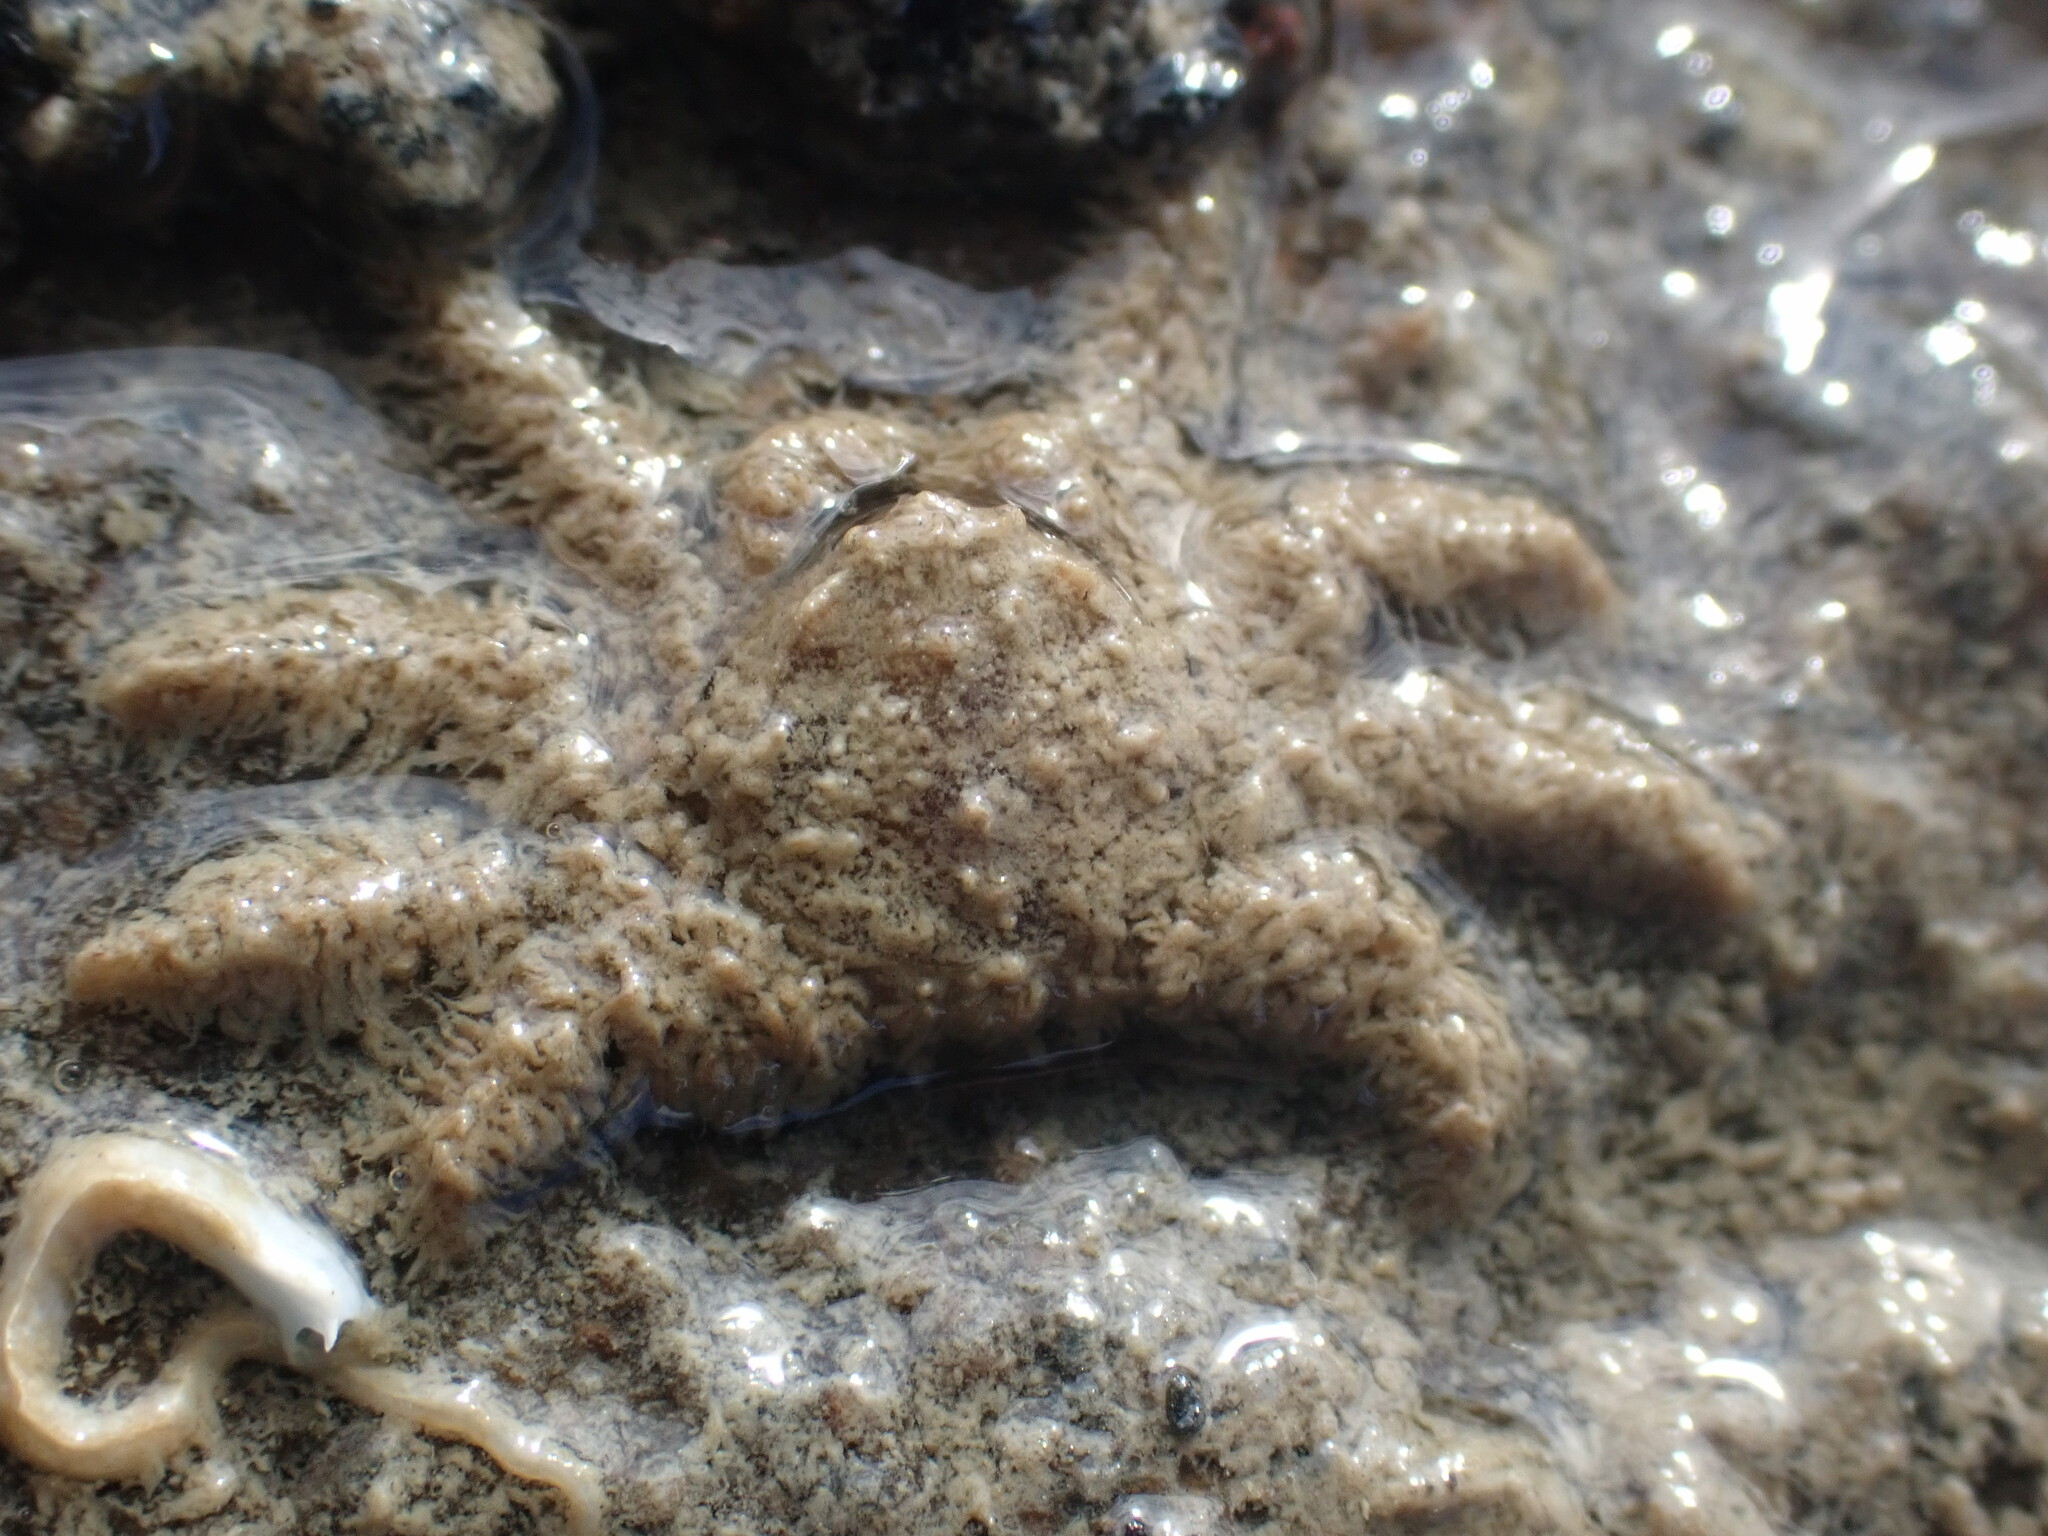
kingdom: Animalia
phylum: Arthropoda
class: Malacostraca
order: Decapoda
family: Hymenosomatidae
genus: Neohymenicus
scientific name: Neohymenicus pubescens
